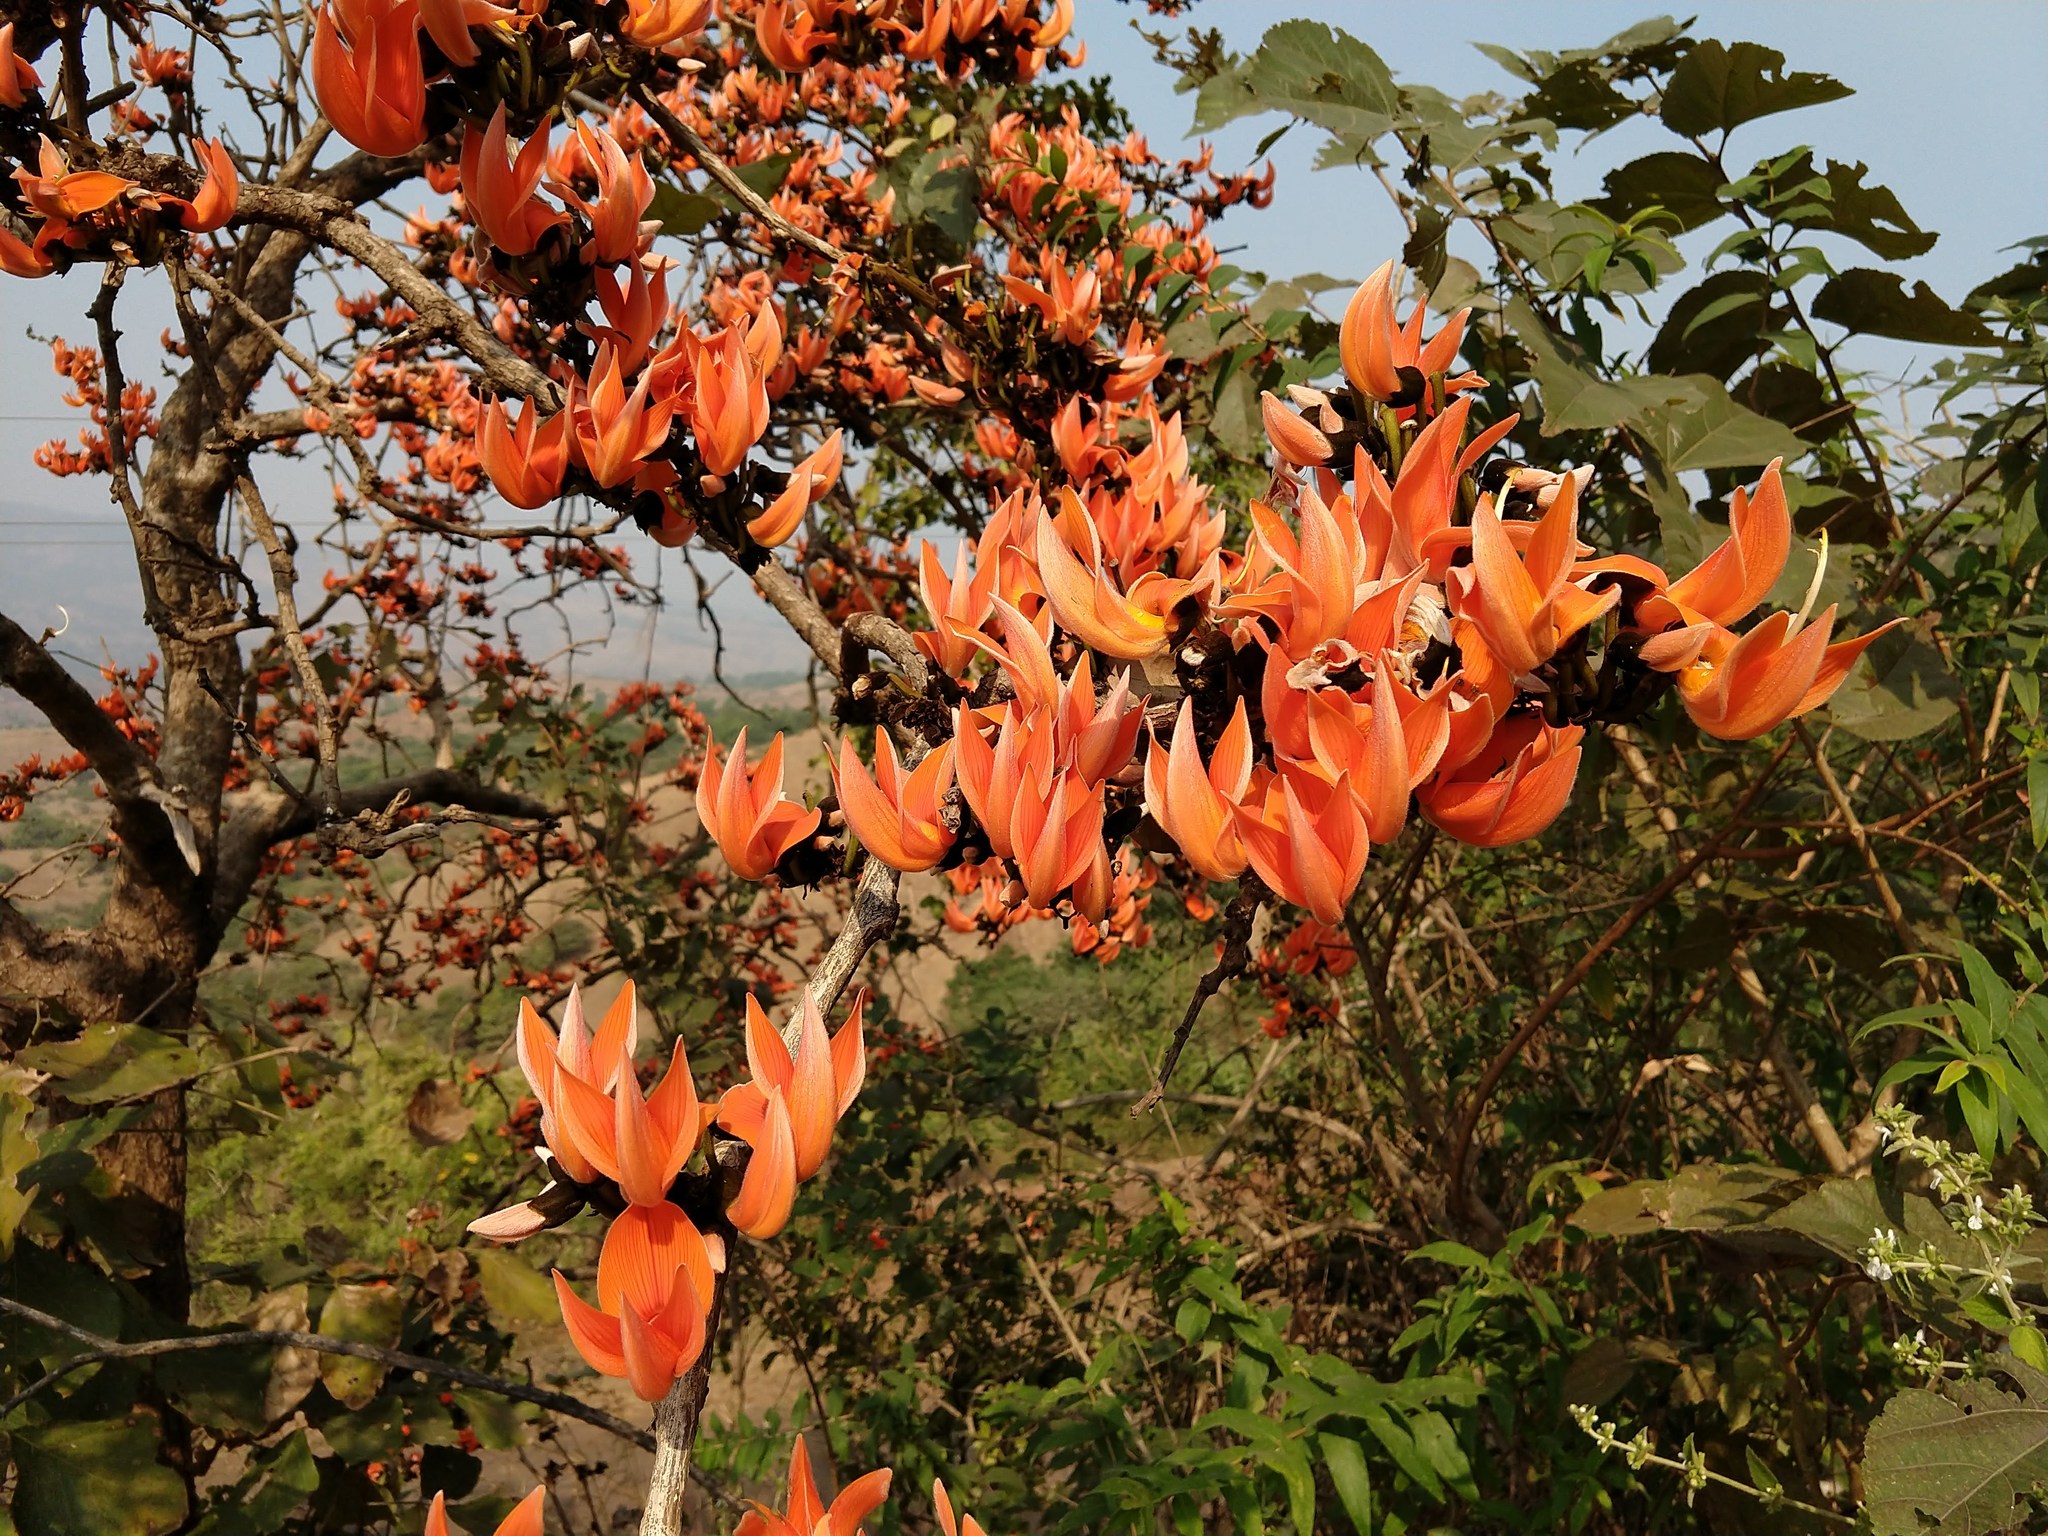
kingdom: Plantae
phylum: Tracheophyta
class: Magnoliopsida
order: Fabales
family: Fabaceae
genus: Butea
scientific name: Butea monosperma
